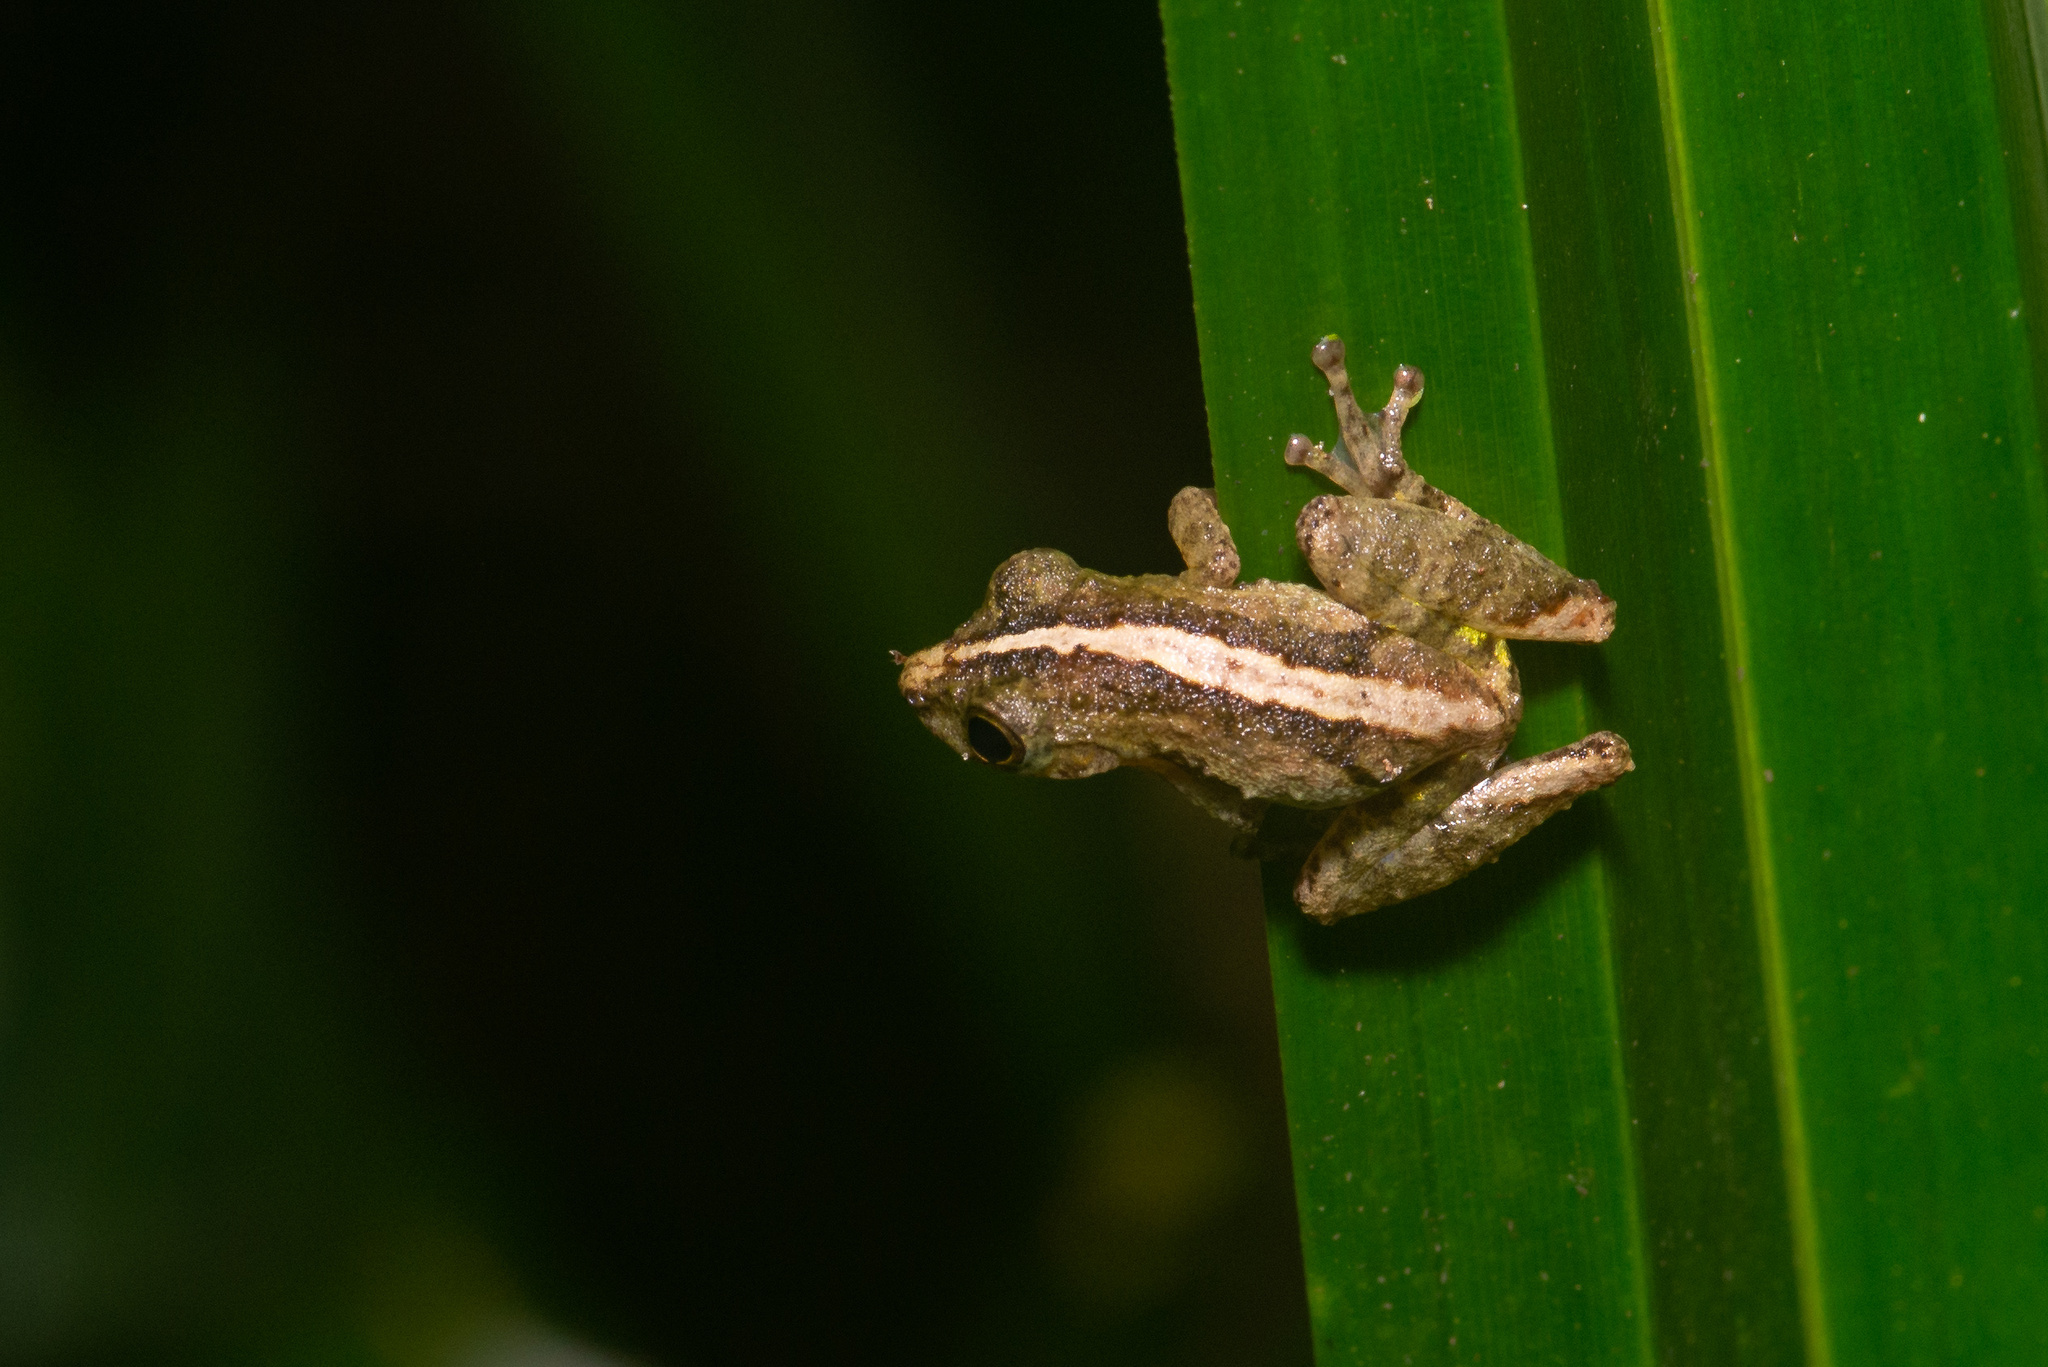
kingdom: Animalia
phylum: Chordata
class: Amphibia
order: Anura
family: Hylidae
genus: Ololygon
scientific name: Ololygon argyreornata
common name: Rio mutum snouted treefrog
